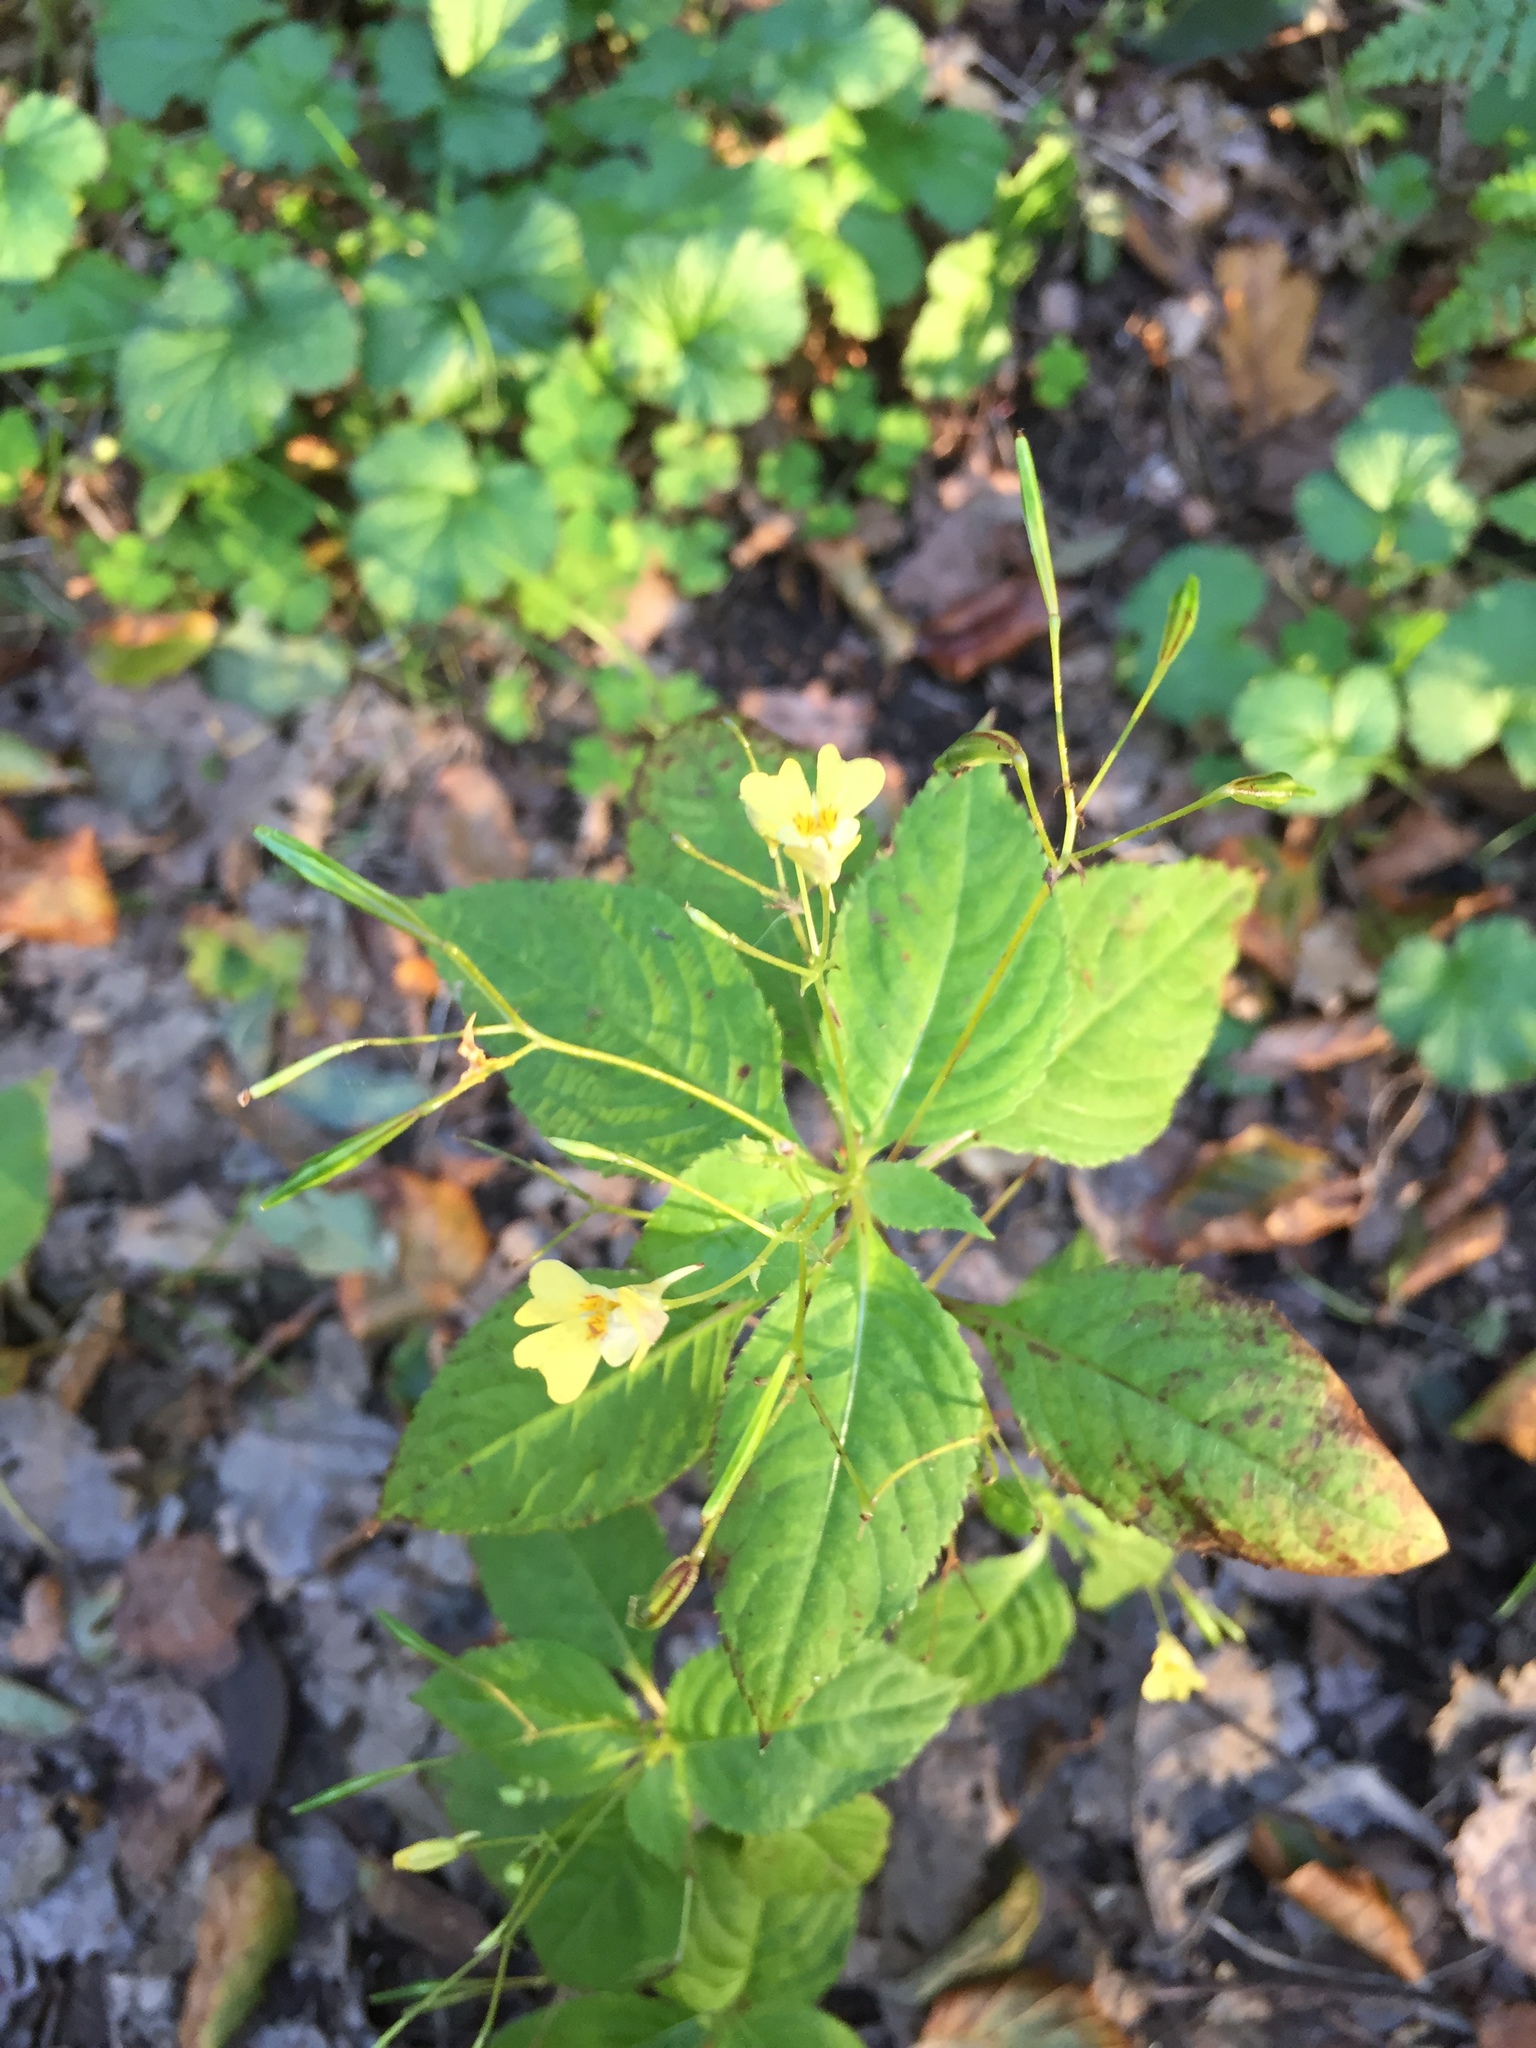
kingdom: Plantae
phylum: Tracheophyta
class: Magnoliopsida
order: Ericales
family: Balsaminaceae
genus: Impatiens
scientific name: Impatiens parviflora
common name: Small balsam
